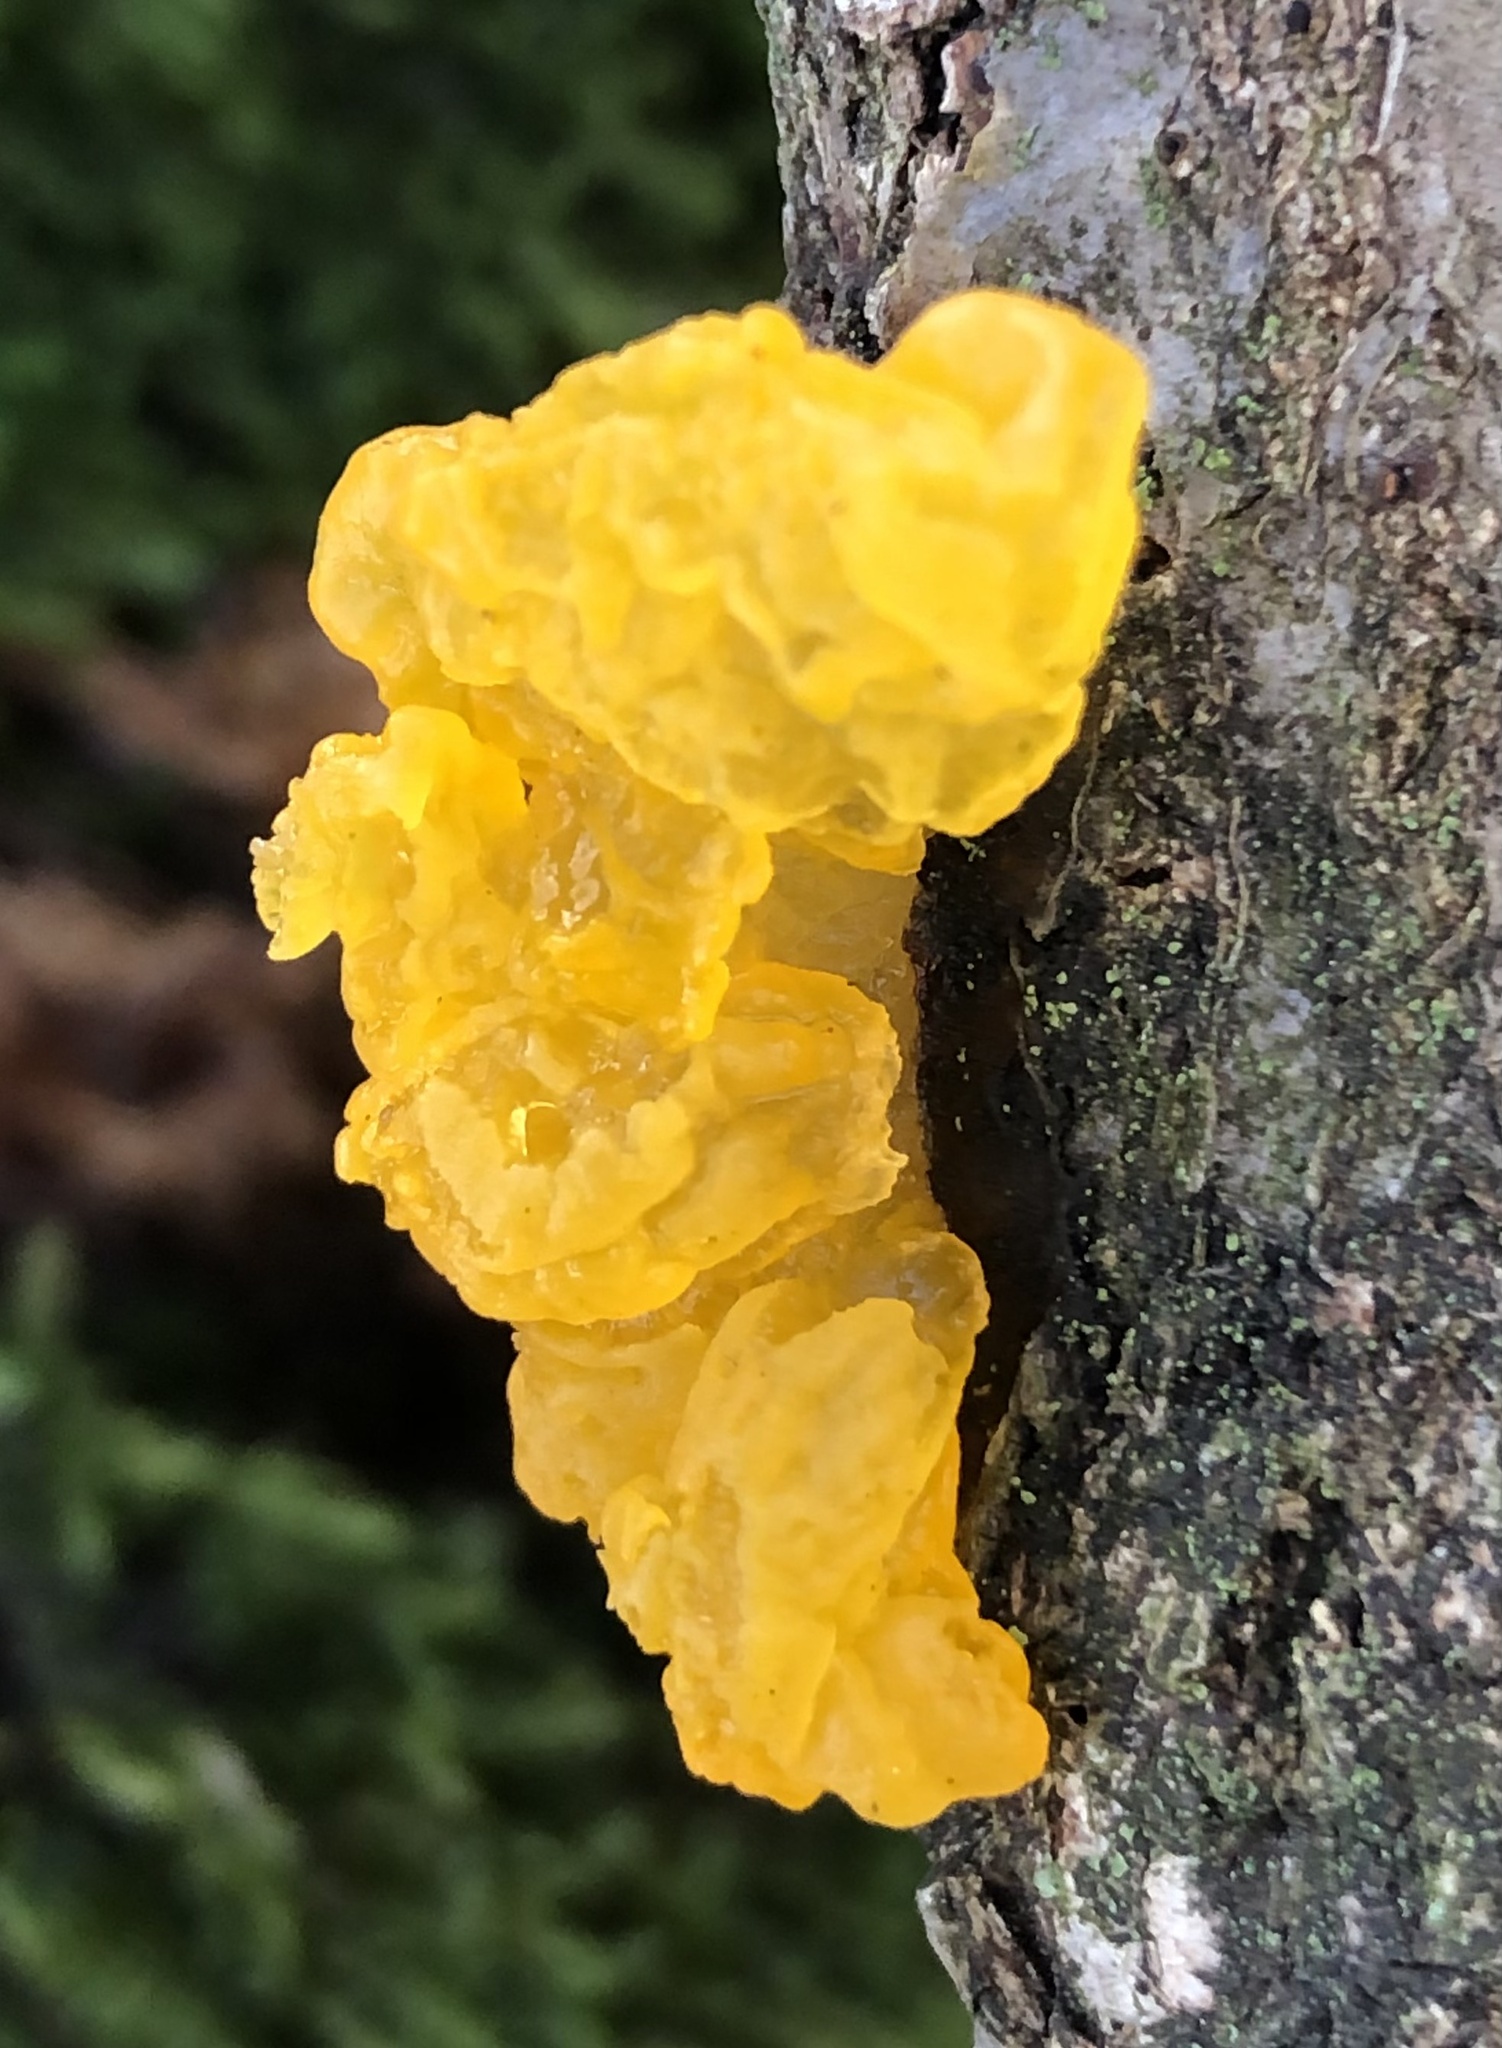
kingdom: Fungi
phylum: Basidiomycota
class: Tremellomycetes
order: Tremellales
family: Tremellaceae
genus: Tremella
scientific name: Tremella mesenterica
